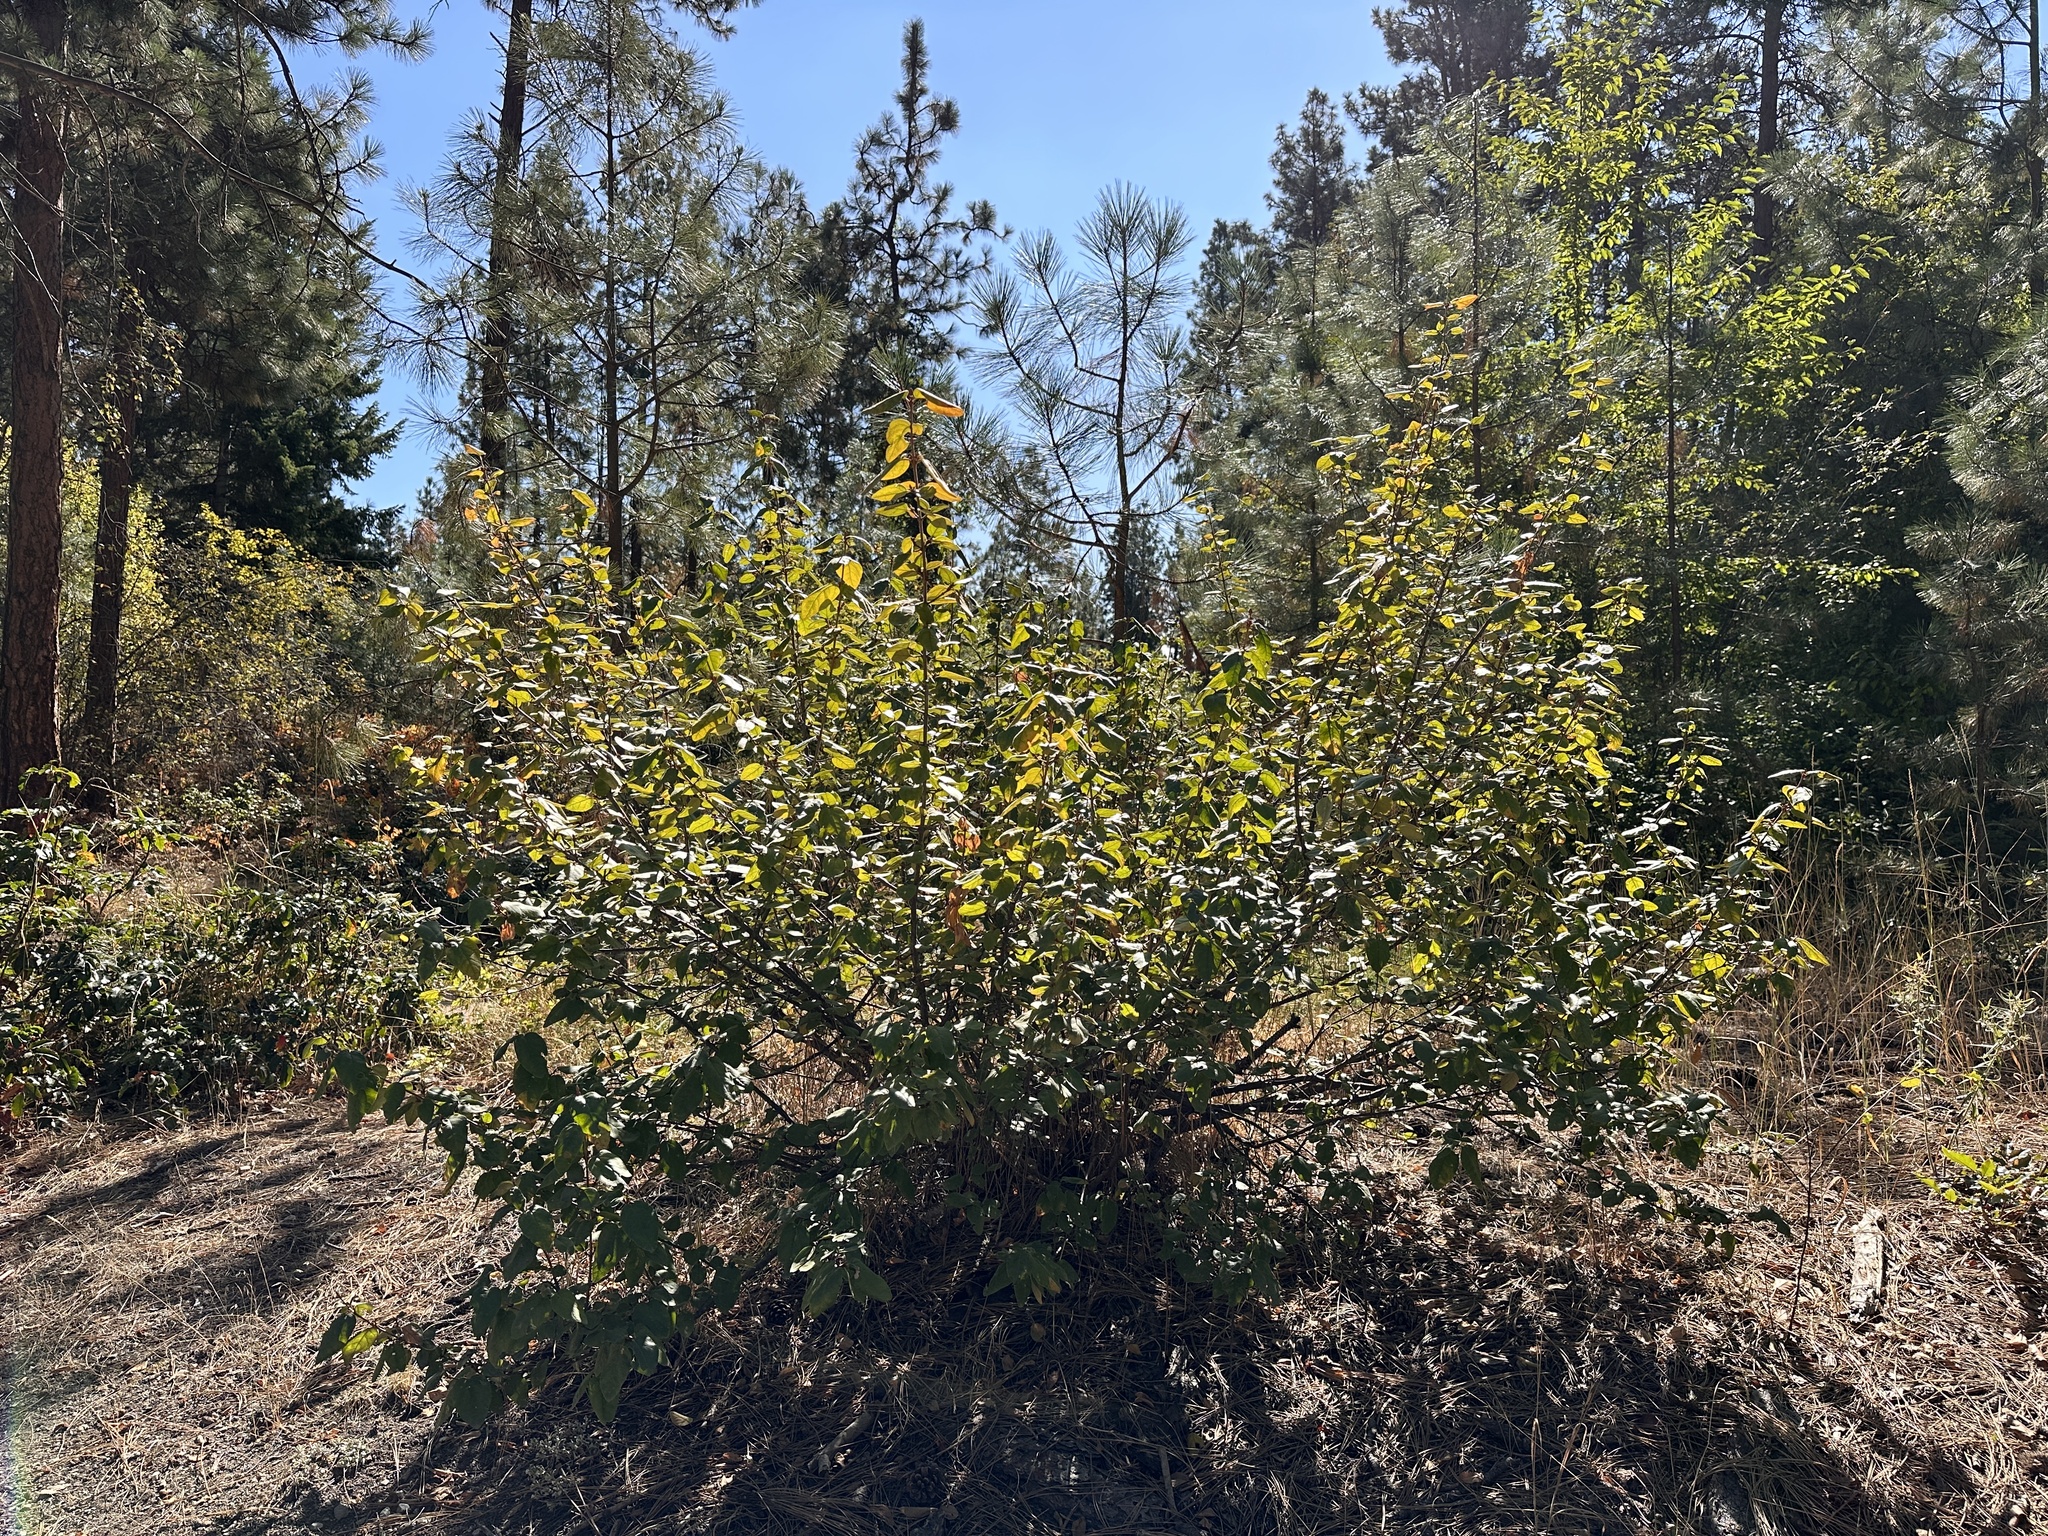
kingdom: Plantae
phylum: Tracheophyta
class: Magnoliopsida
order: Rosales
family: Elaeagnaceae
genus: Shepherdia
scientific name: Shepherdia canadensis
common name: Soapberry
